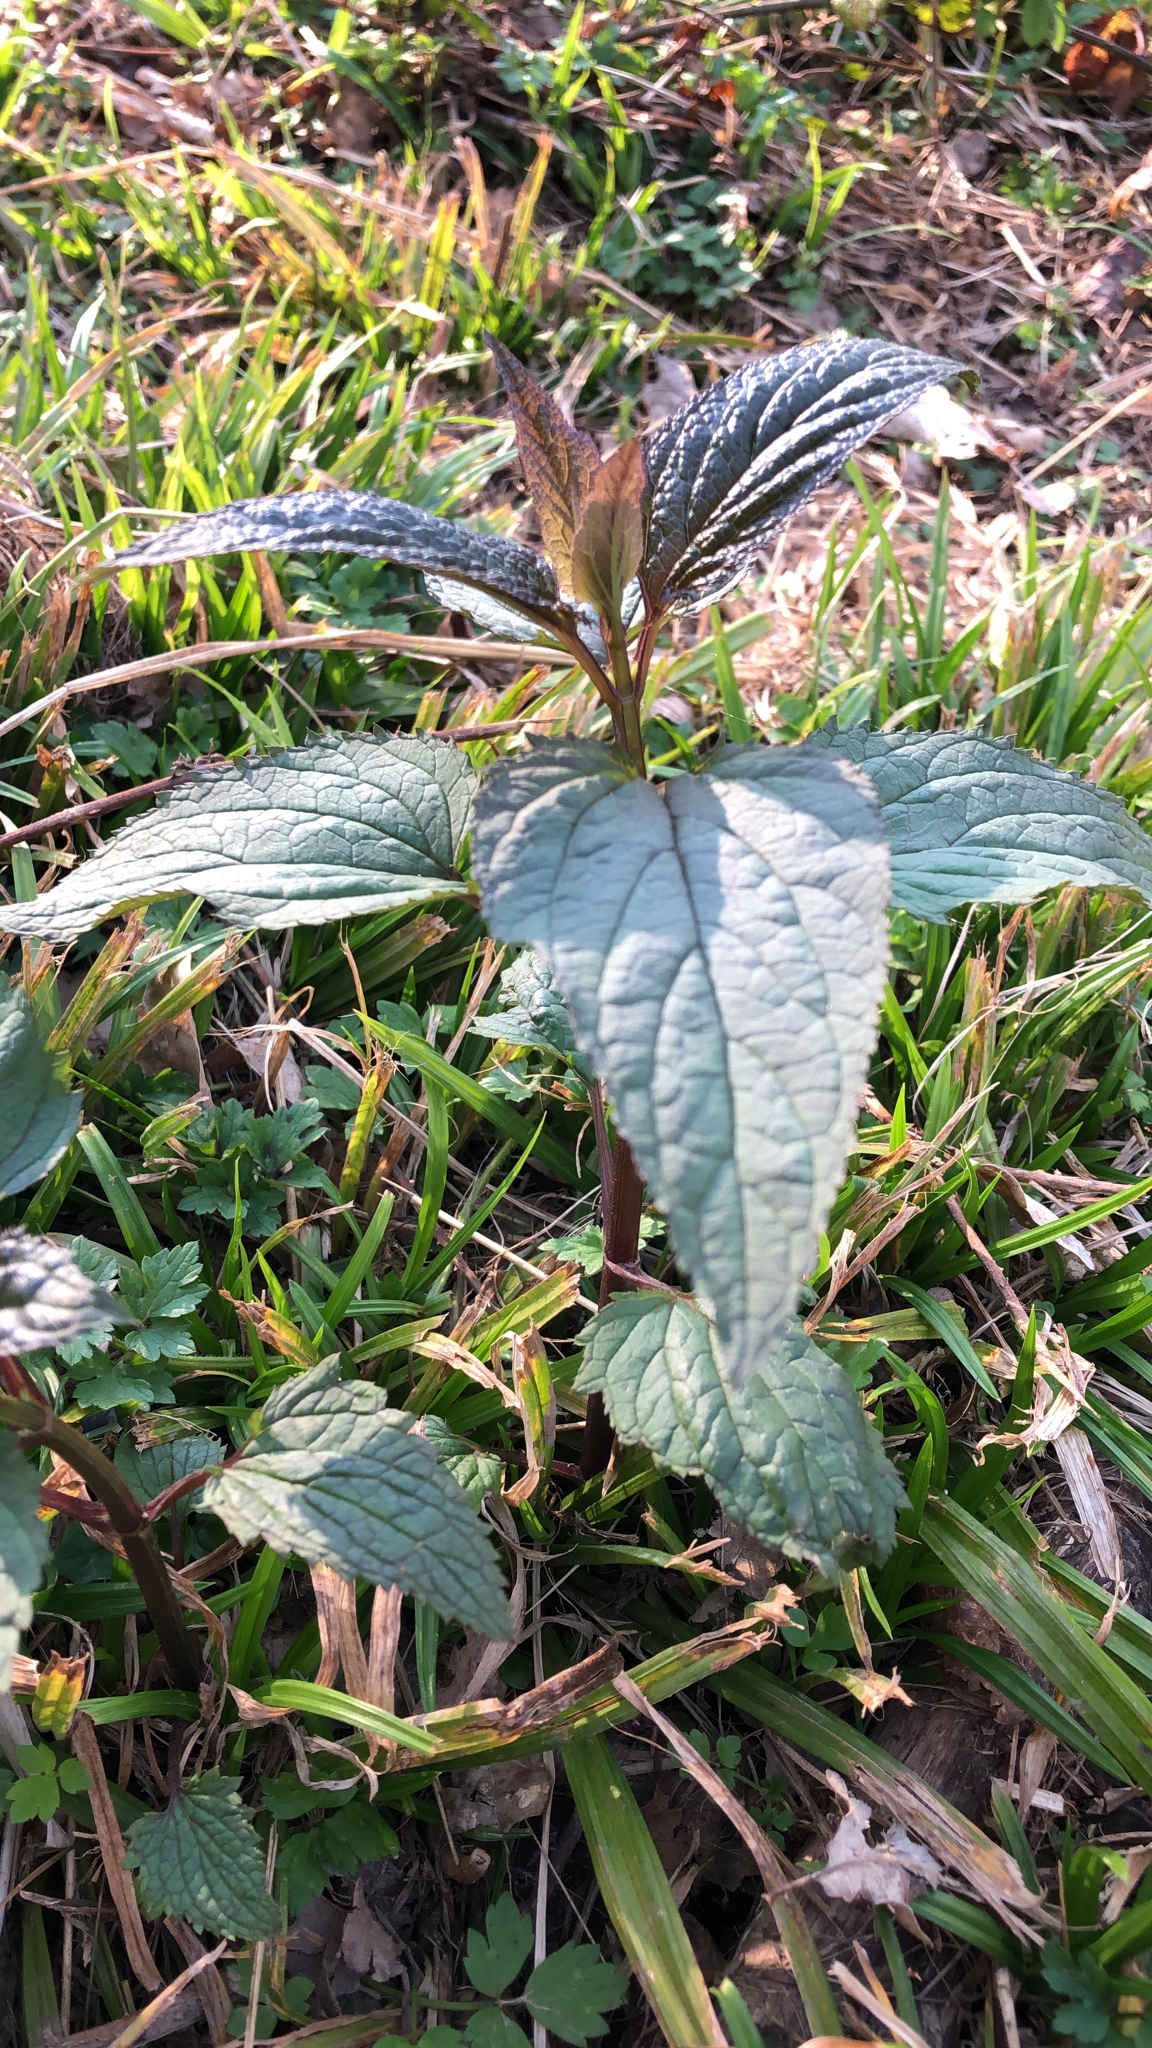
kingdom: Plantae
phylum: Tracheophyta
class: Magnoliopsida
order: Lamiales
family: Scrophulariaceae
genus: Scrophularia
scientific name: Scrophularia nodosa
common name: Common figwort
